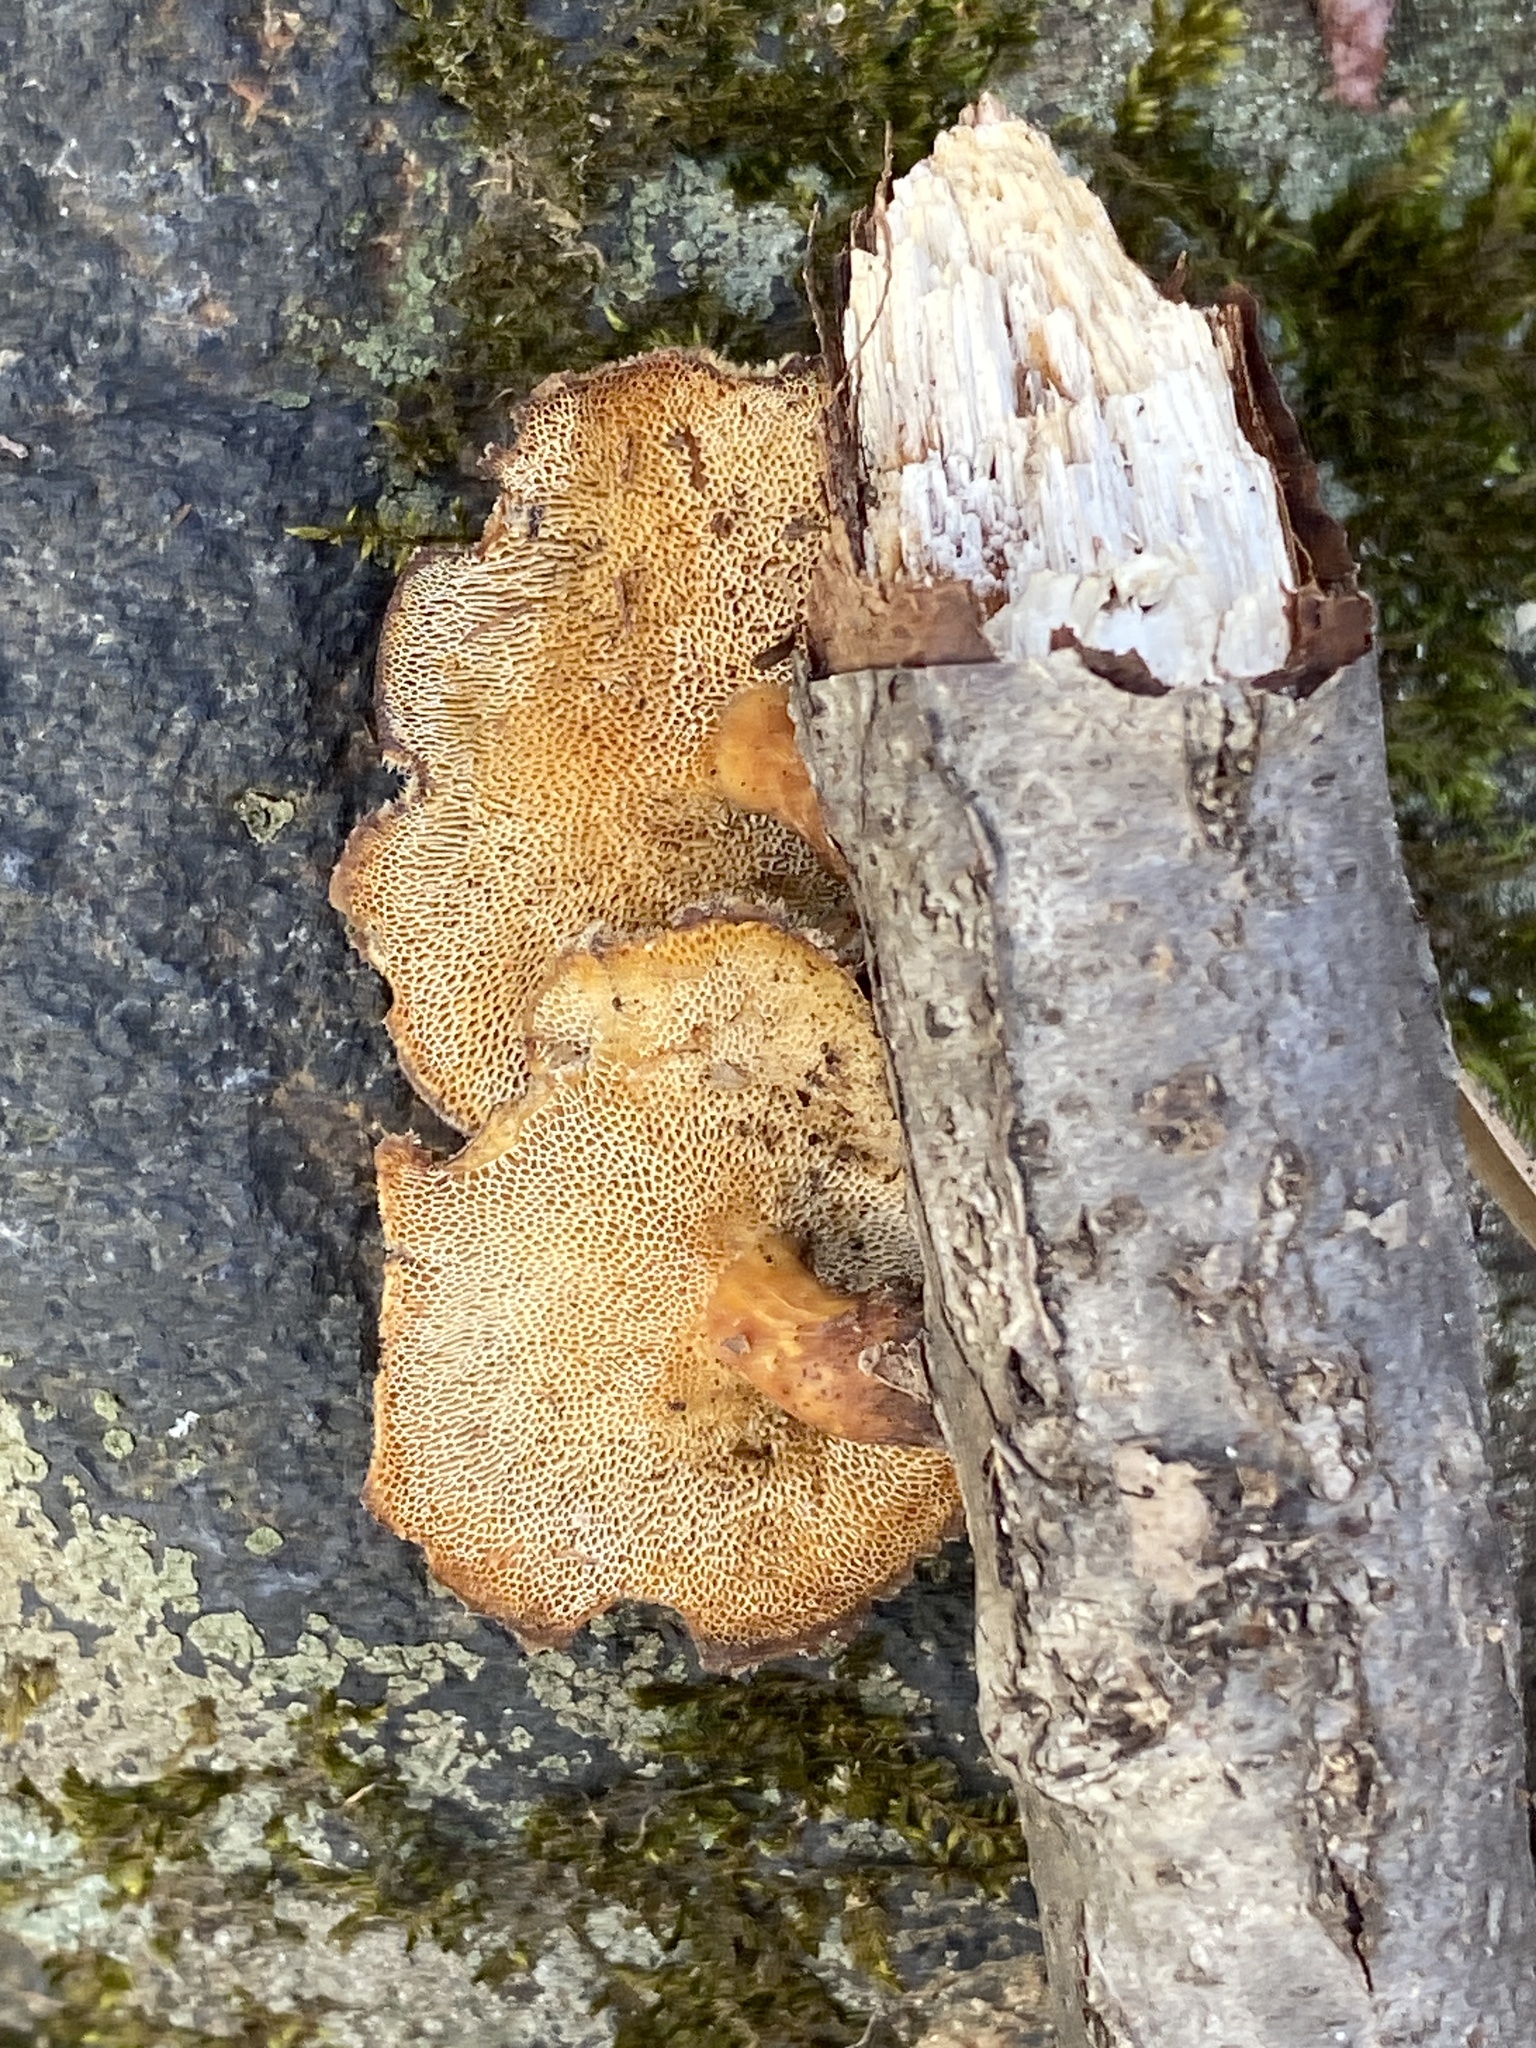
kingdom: Fungi
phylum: Basidiomycota
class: Agaricomycetes
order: Polyporales
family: Polyporaceae
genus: Lentinus
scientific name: Lentinus brumalis
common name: Winter polypore
